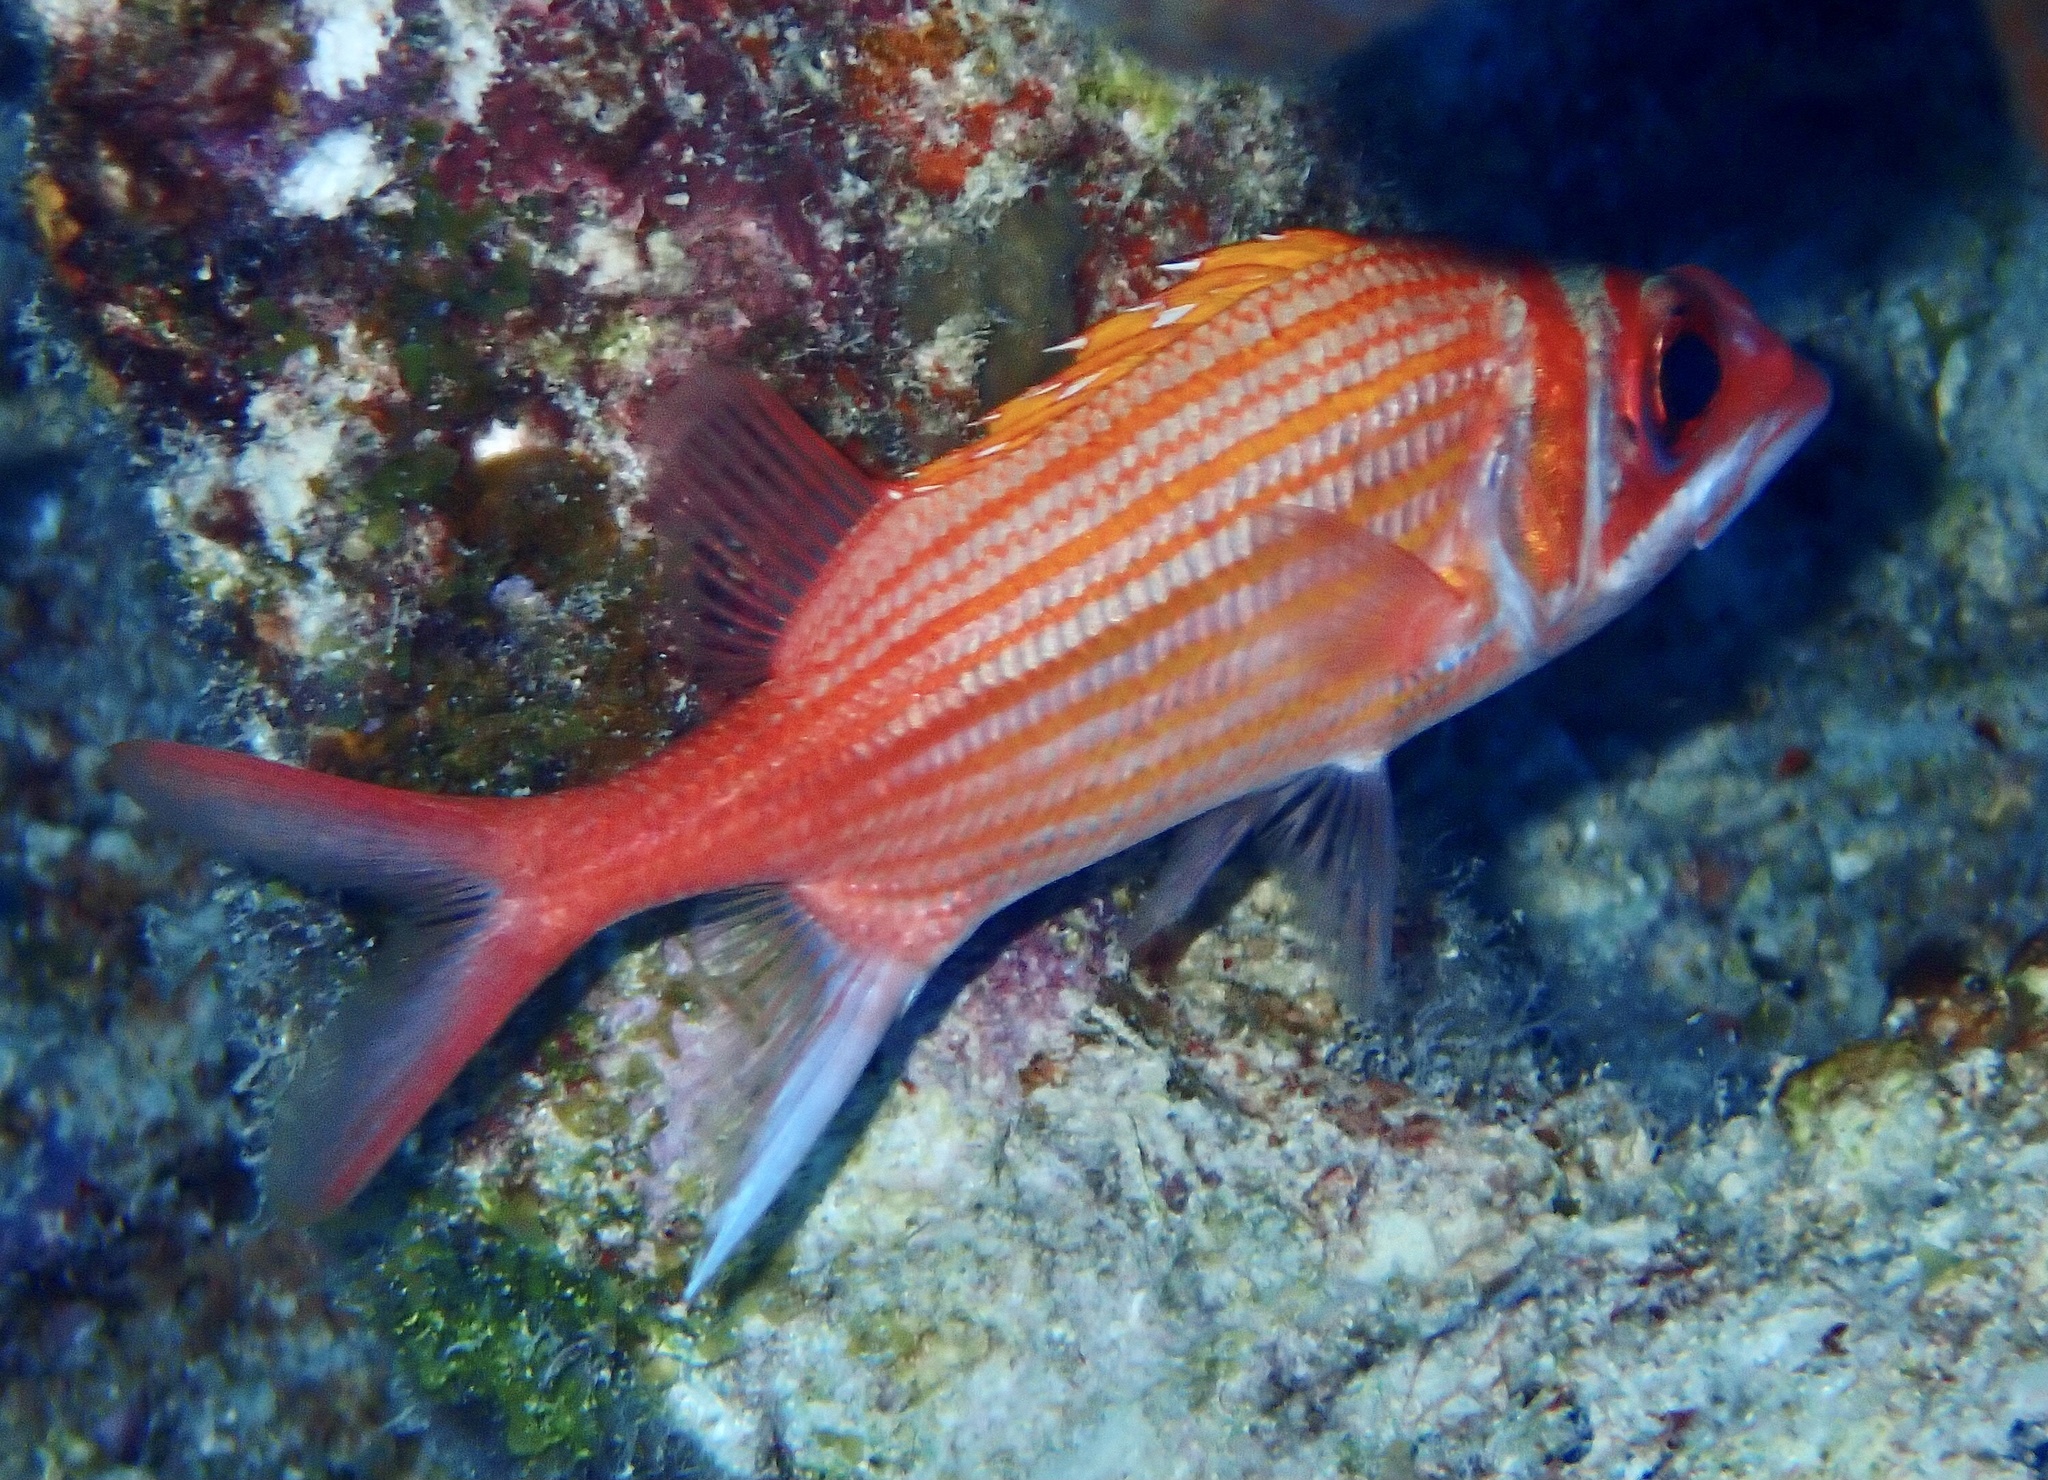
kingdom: Animalia
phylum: Chordata
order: Beryciformes
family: Holocentridae
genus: Neoniphon
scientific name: Neoniphon marianus
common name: Longjaw squirrelfish
